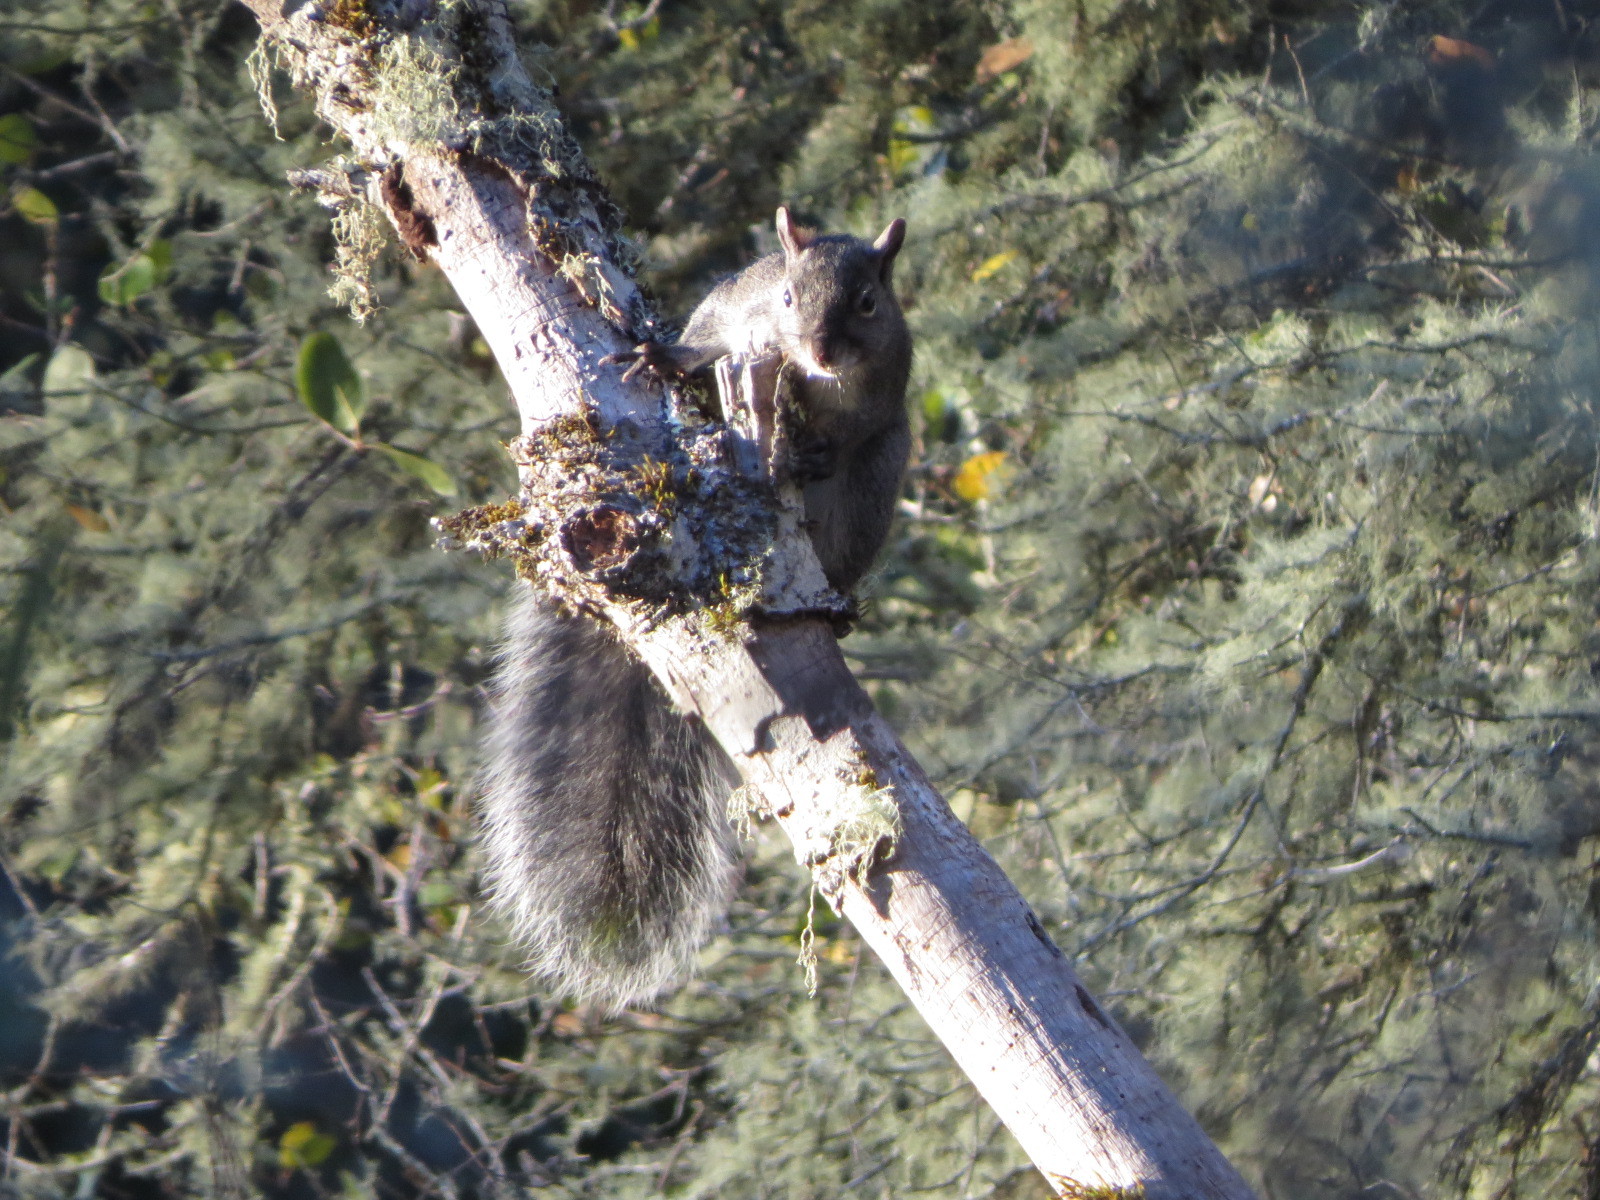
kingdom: Animalia
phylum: Chordata
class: Mammalia
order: Rodentia
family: Sciuridae
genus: Sciurus
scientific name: Sciurus griseus
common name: Western gray squirrel
